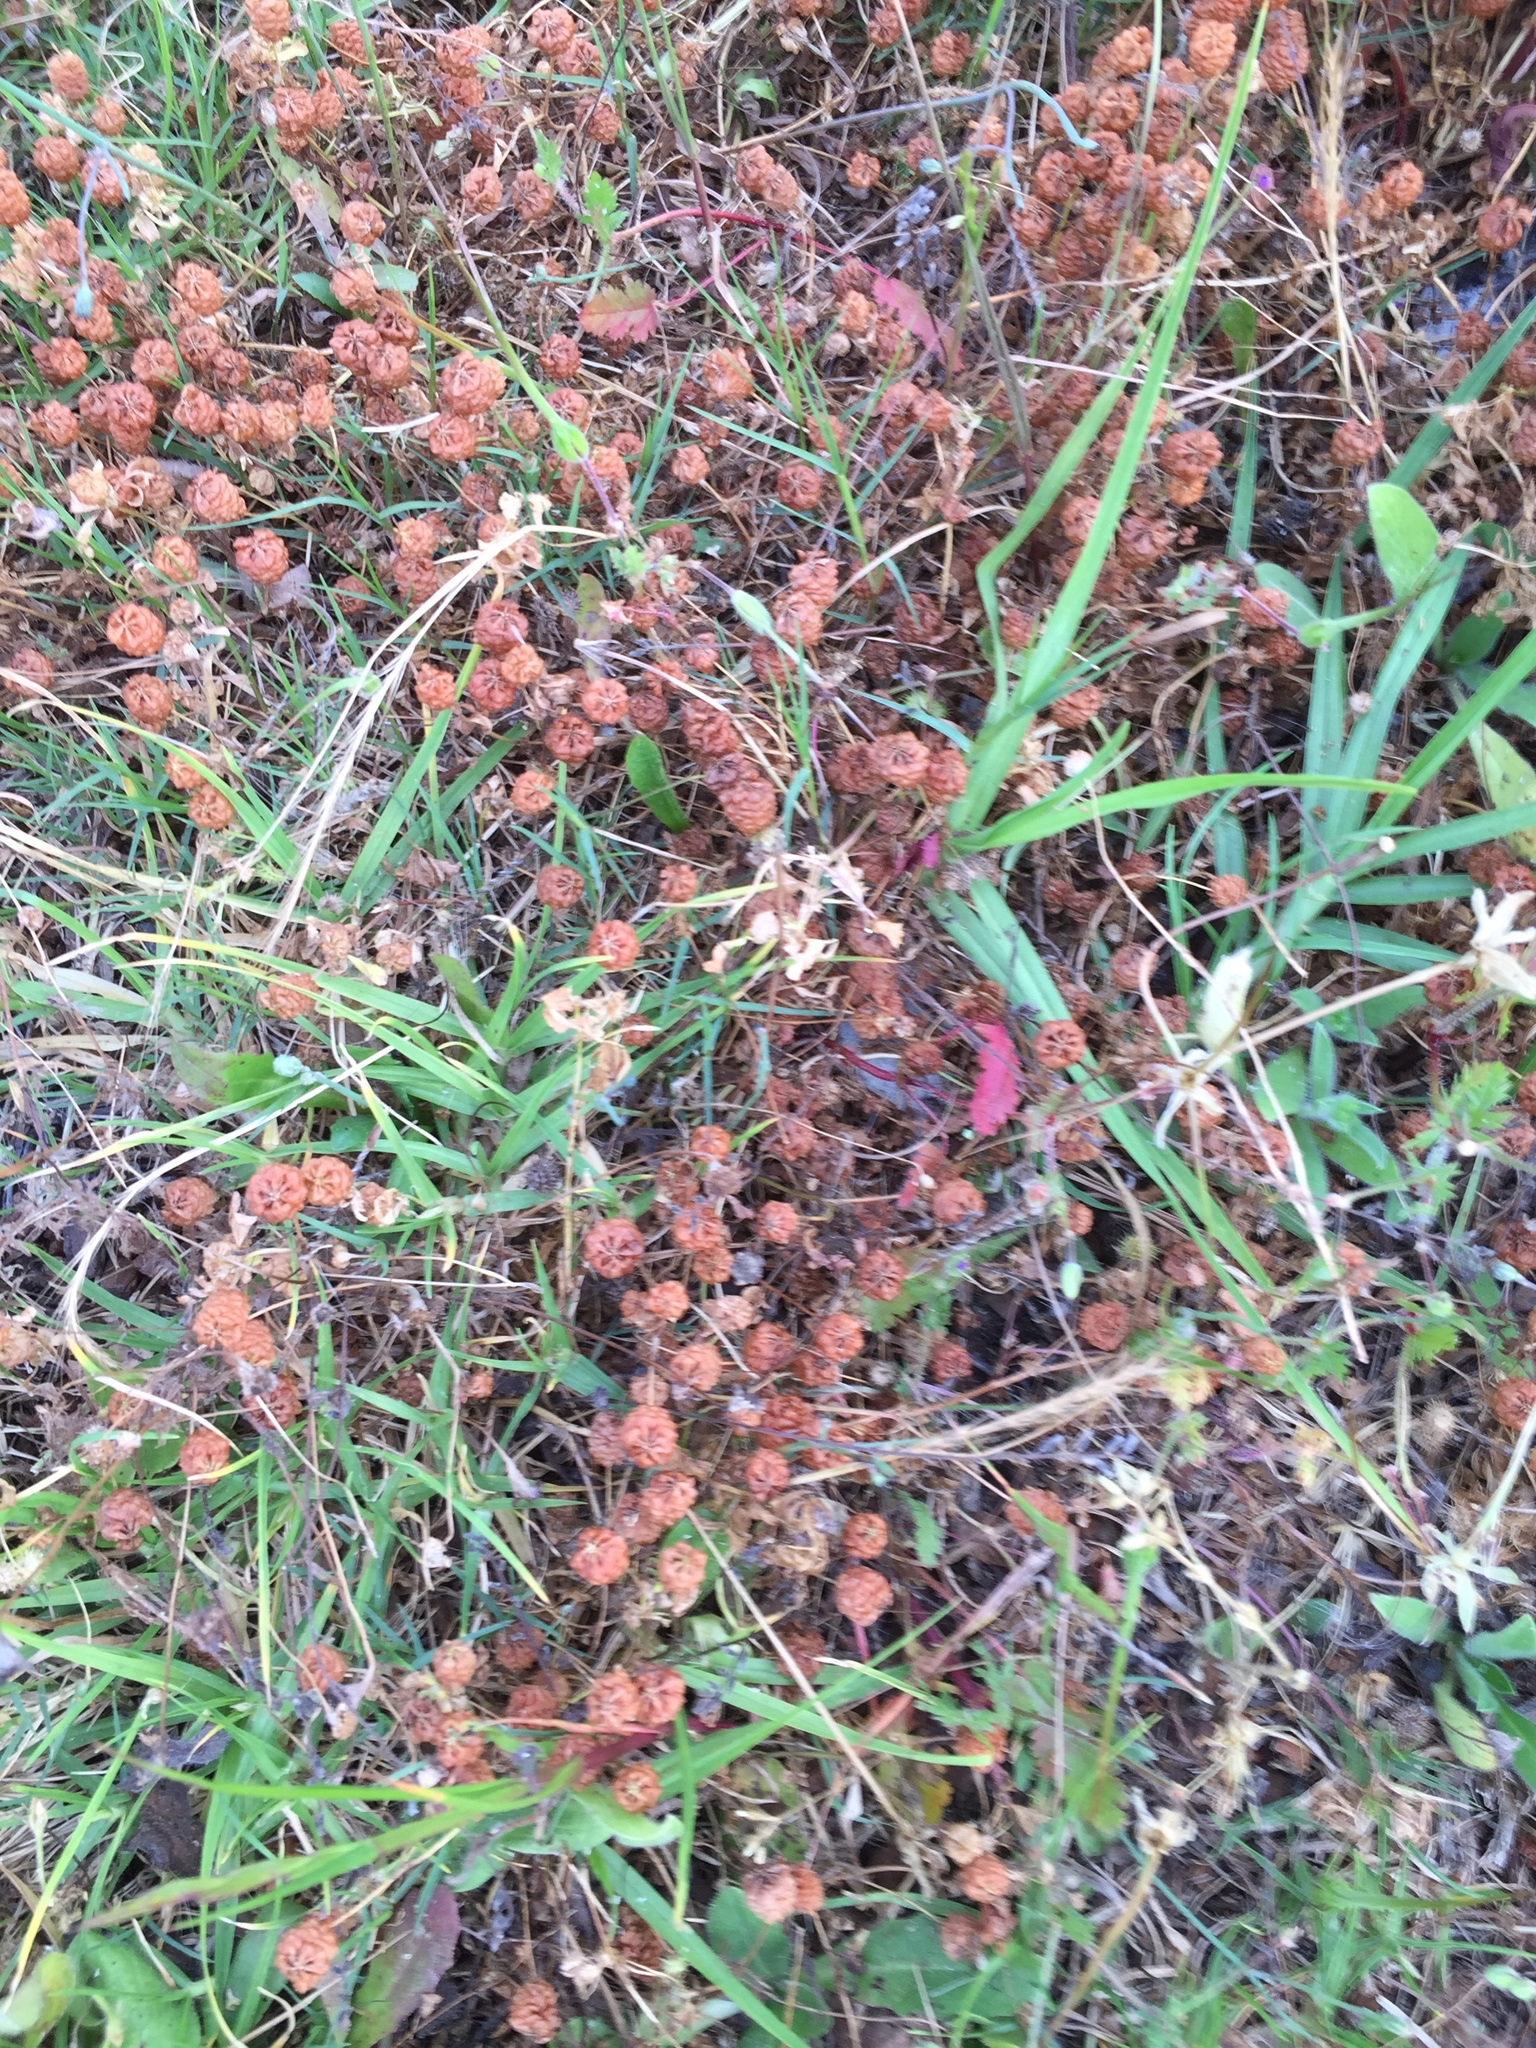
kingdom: Plantae
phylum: Tracheophyta
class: Magnoliopsida
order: Fabales
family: Fabaceae
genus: Trifolium
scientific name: Trifolium campestre
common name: Field clover
